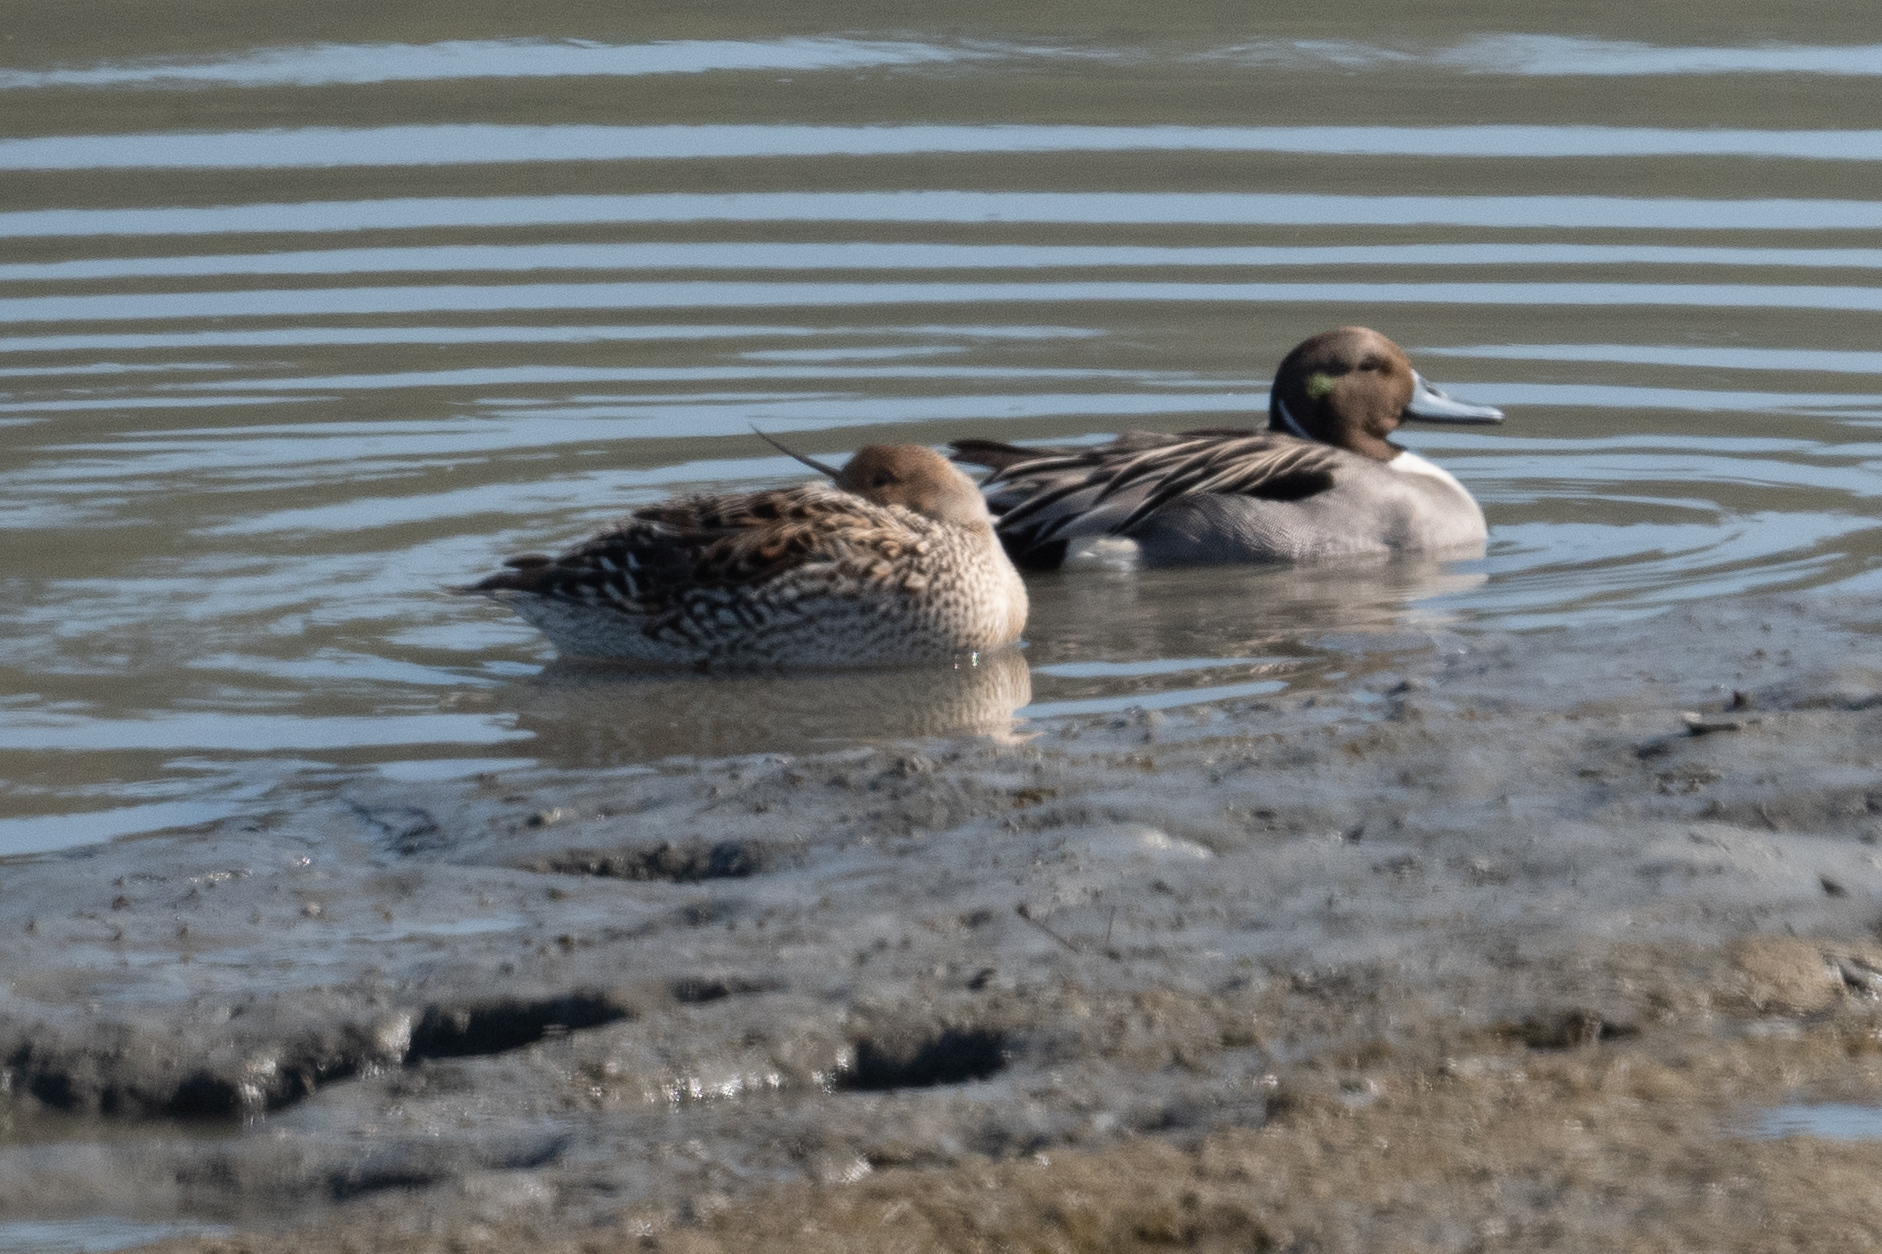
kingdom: Animalia
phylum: Chordata
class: Aves
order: Anseriformes
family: Anatidae
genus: Anas
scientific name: Anas acuta
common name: Northern pintail
